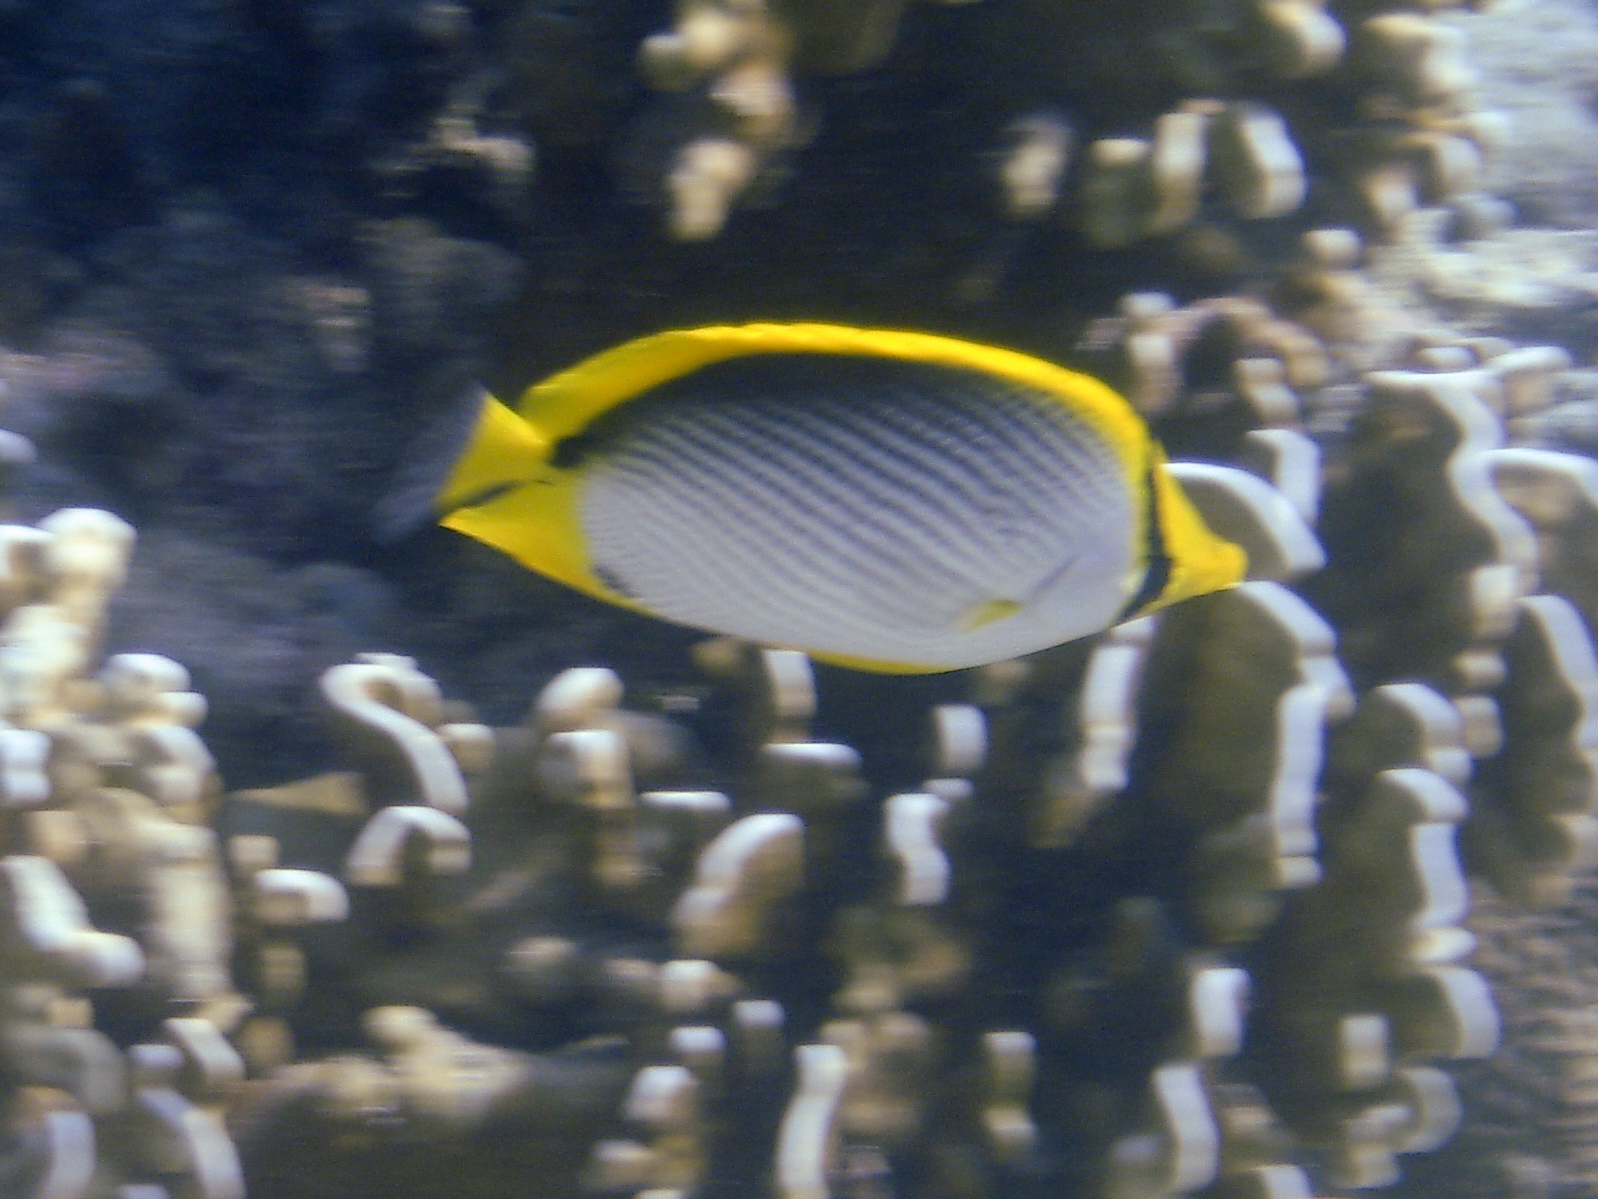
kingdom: Animalia
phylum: Chordata
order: Perciformes
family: Chaetodontidae
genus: Chaetodon
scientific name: Chaetodon melannotus
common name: Blackback butterflyfish
